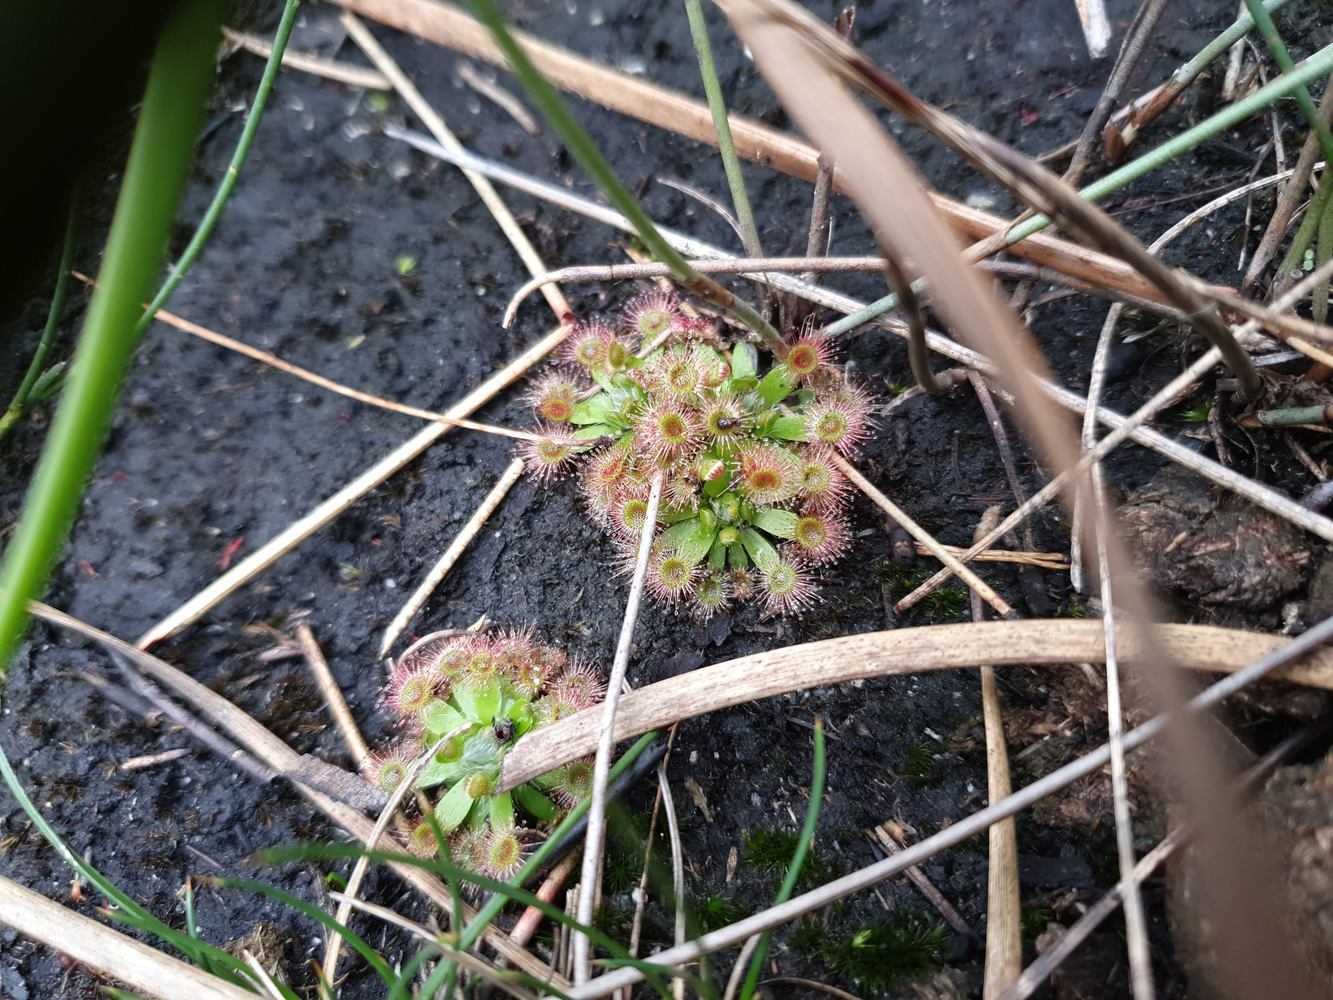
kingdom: Plantae
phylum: Tracheophyta
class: Magnoliopsida
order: Caryophyllales
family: Droseraceae
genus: Drosera
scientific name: Drosera pulchella
